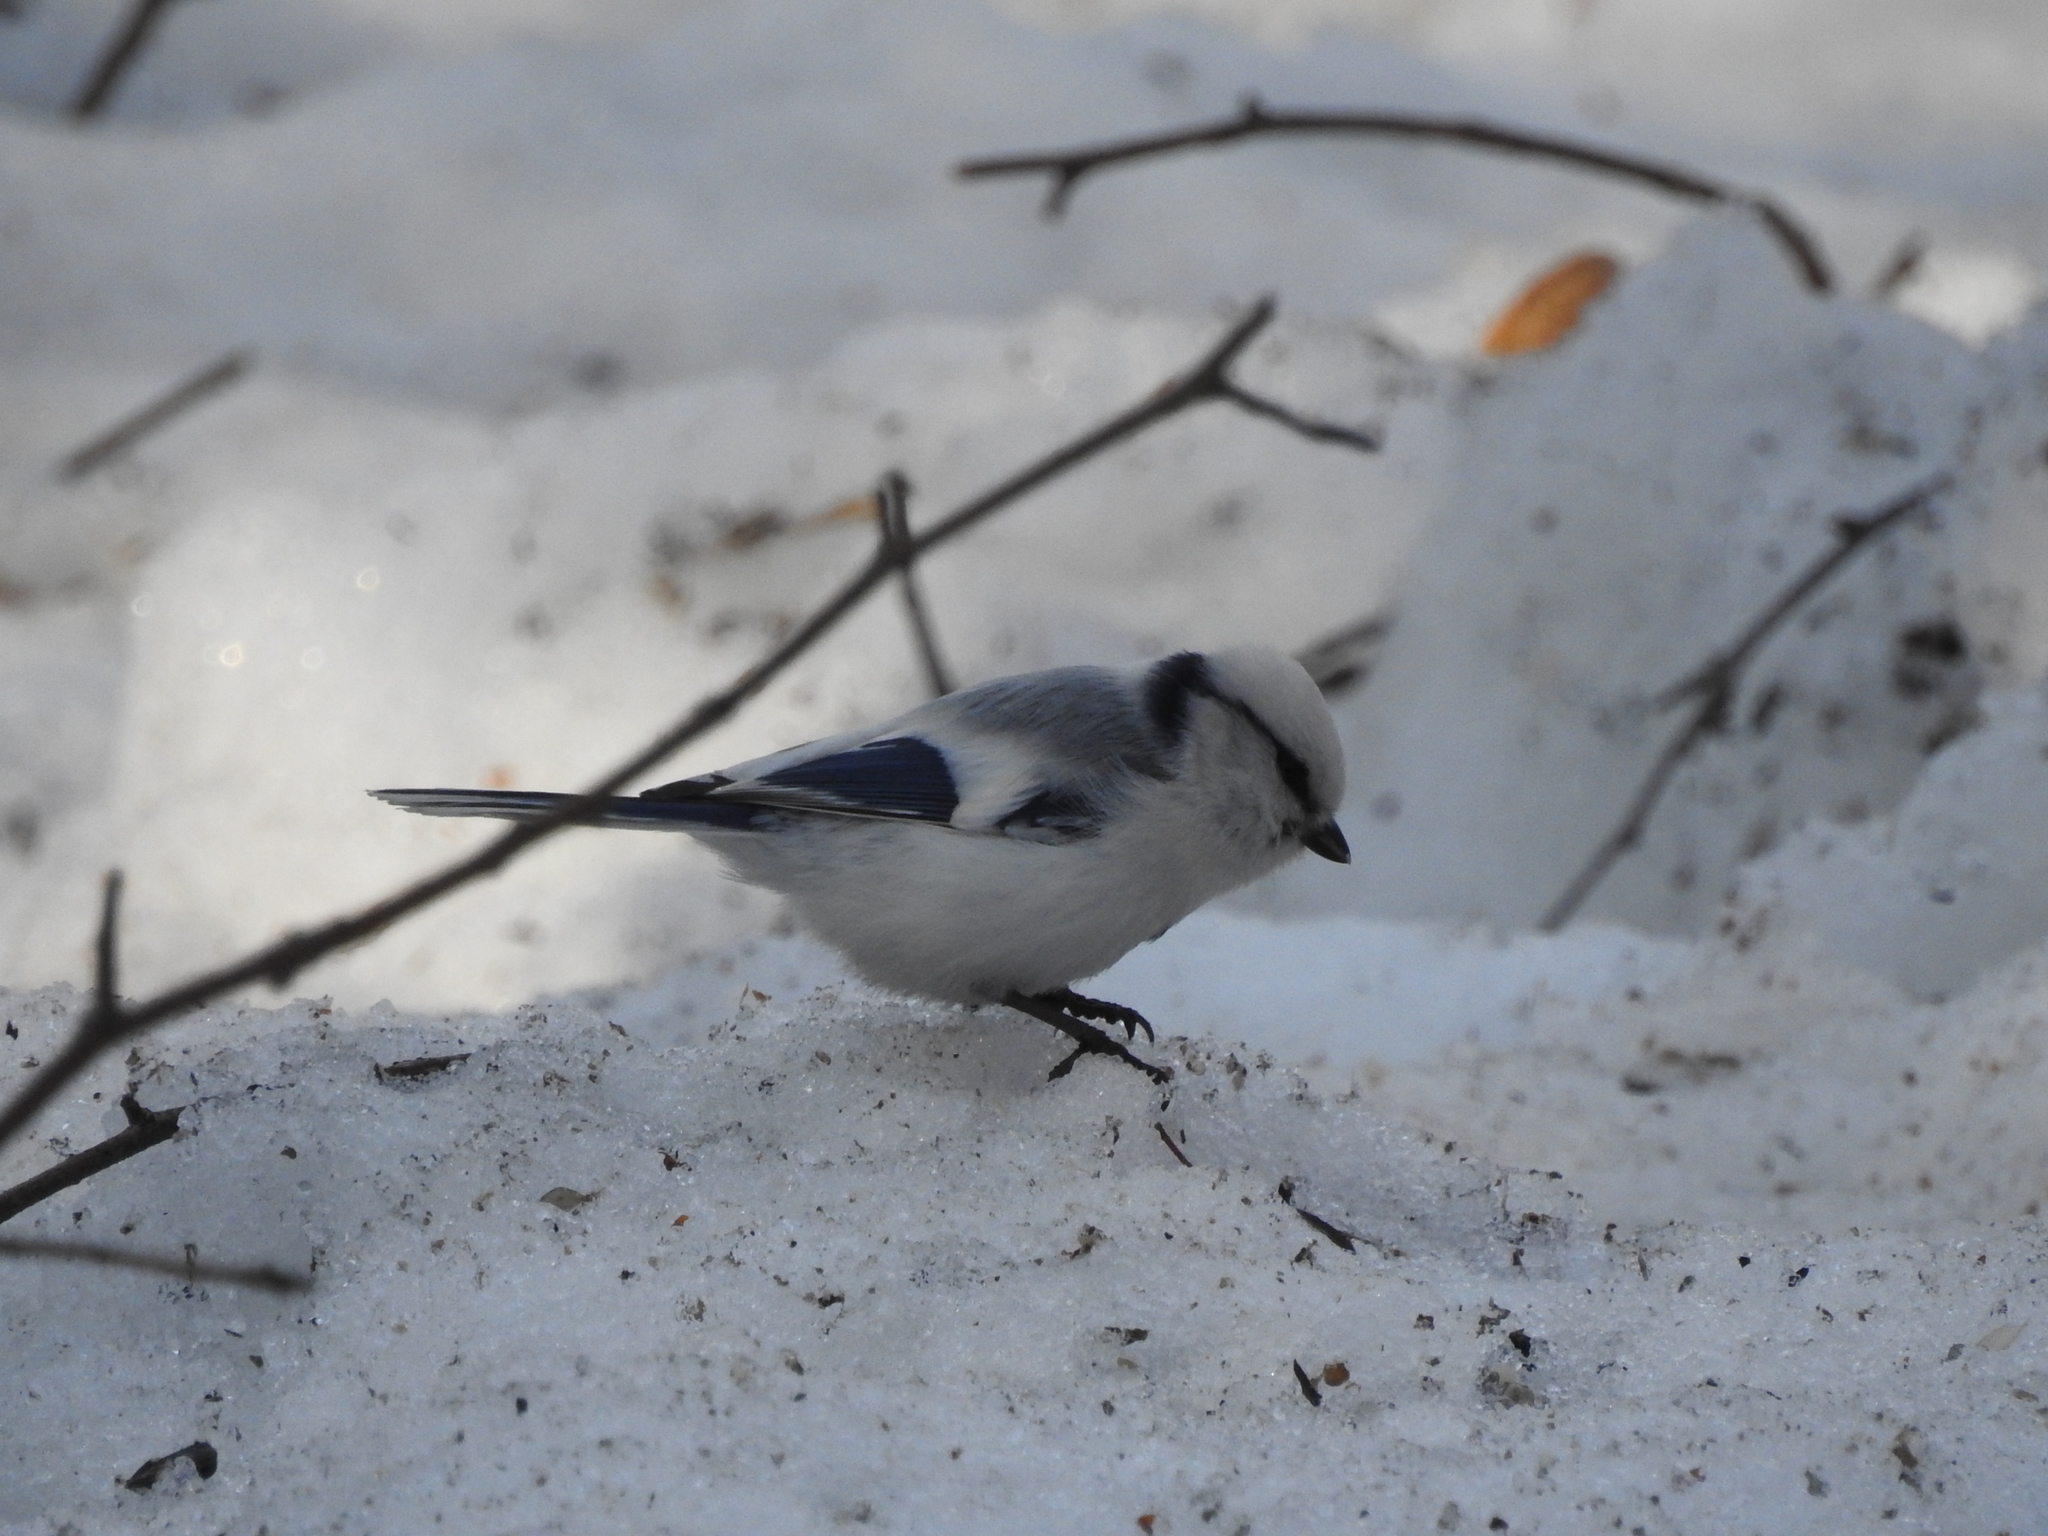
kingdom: Animalia
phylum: Chordata
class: Aves
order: Passeriformes
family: Paridae
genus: Cyanistes
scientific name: Cyanistes cyanus
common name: Azure tit
